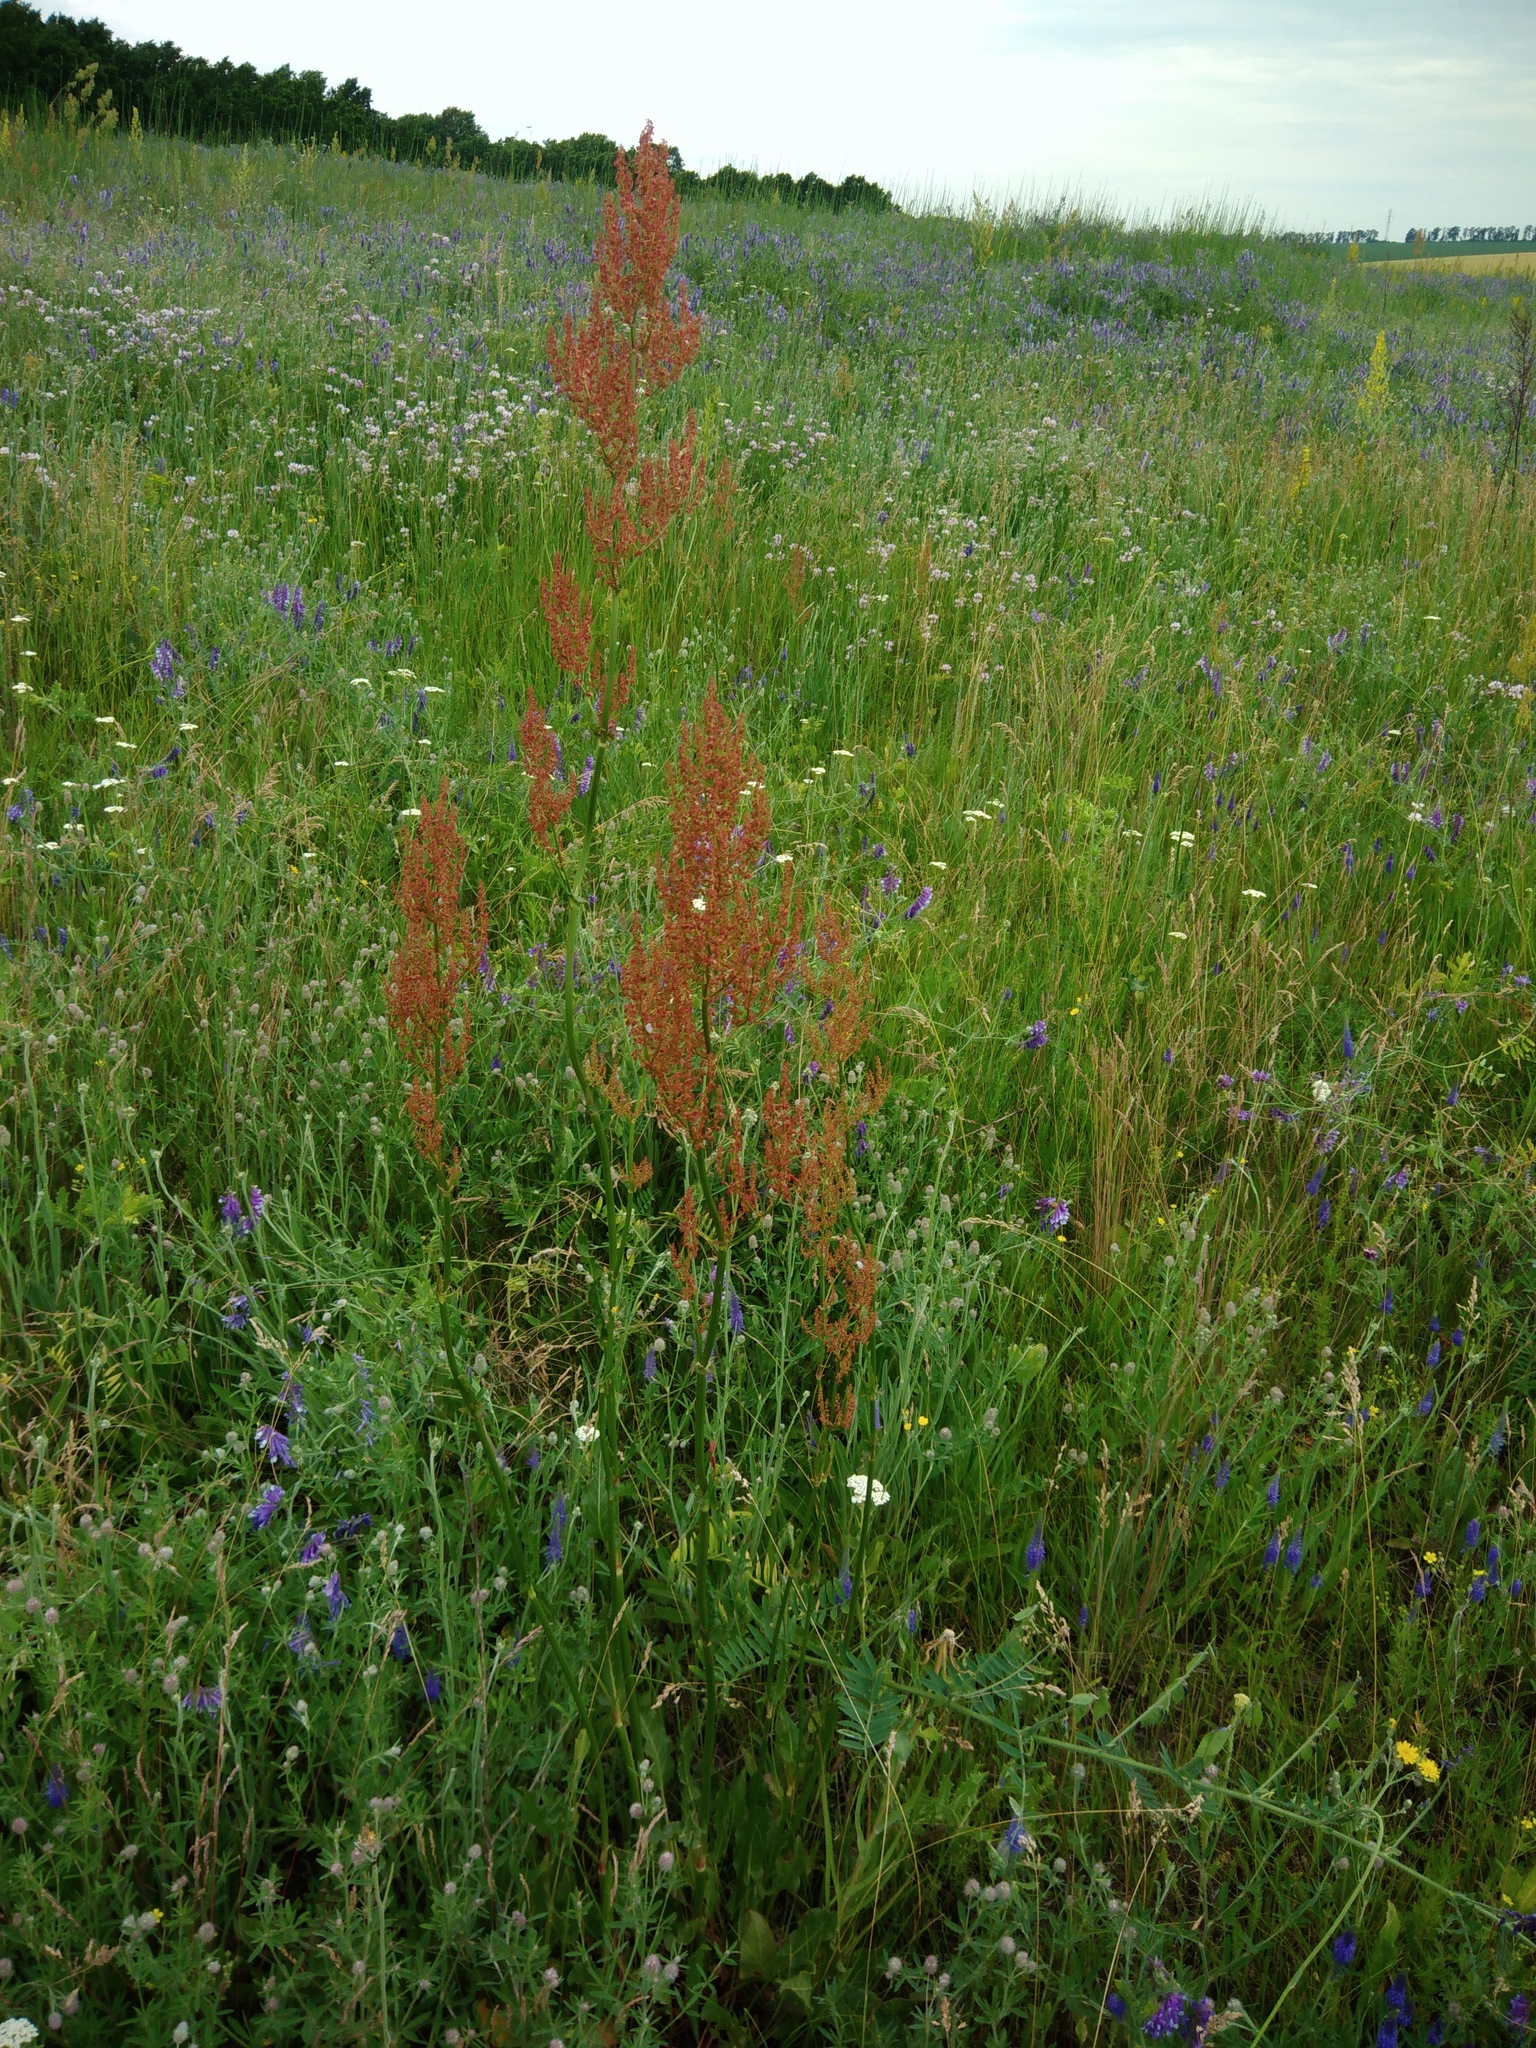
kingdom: Plantae
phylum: Tracheophyta
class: Magnoliopsida
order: Caryophyllales
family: Polygonaceae
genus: Rumex
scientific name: Rumex thyrsiflorus
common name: Garden sorrel
